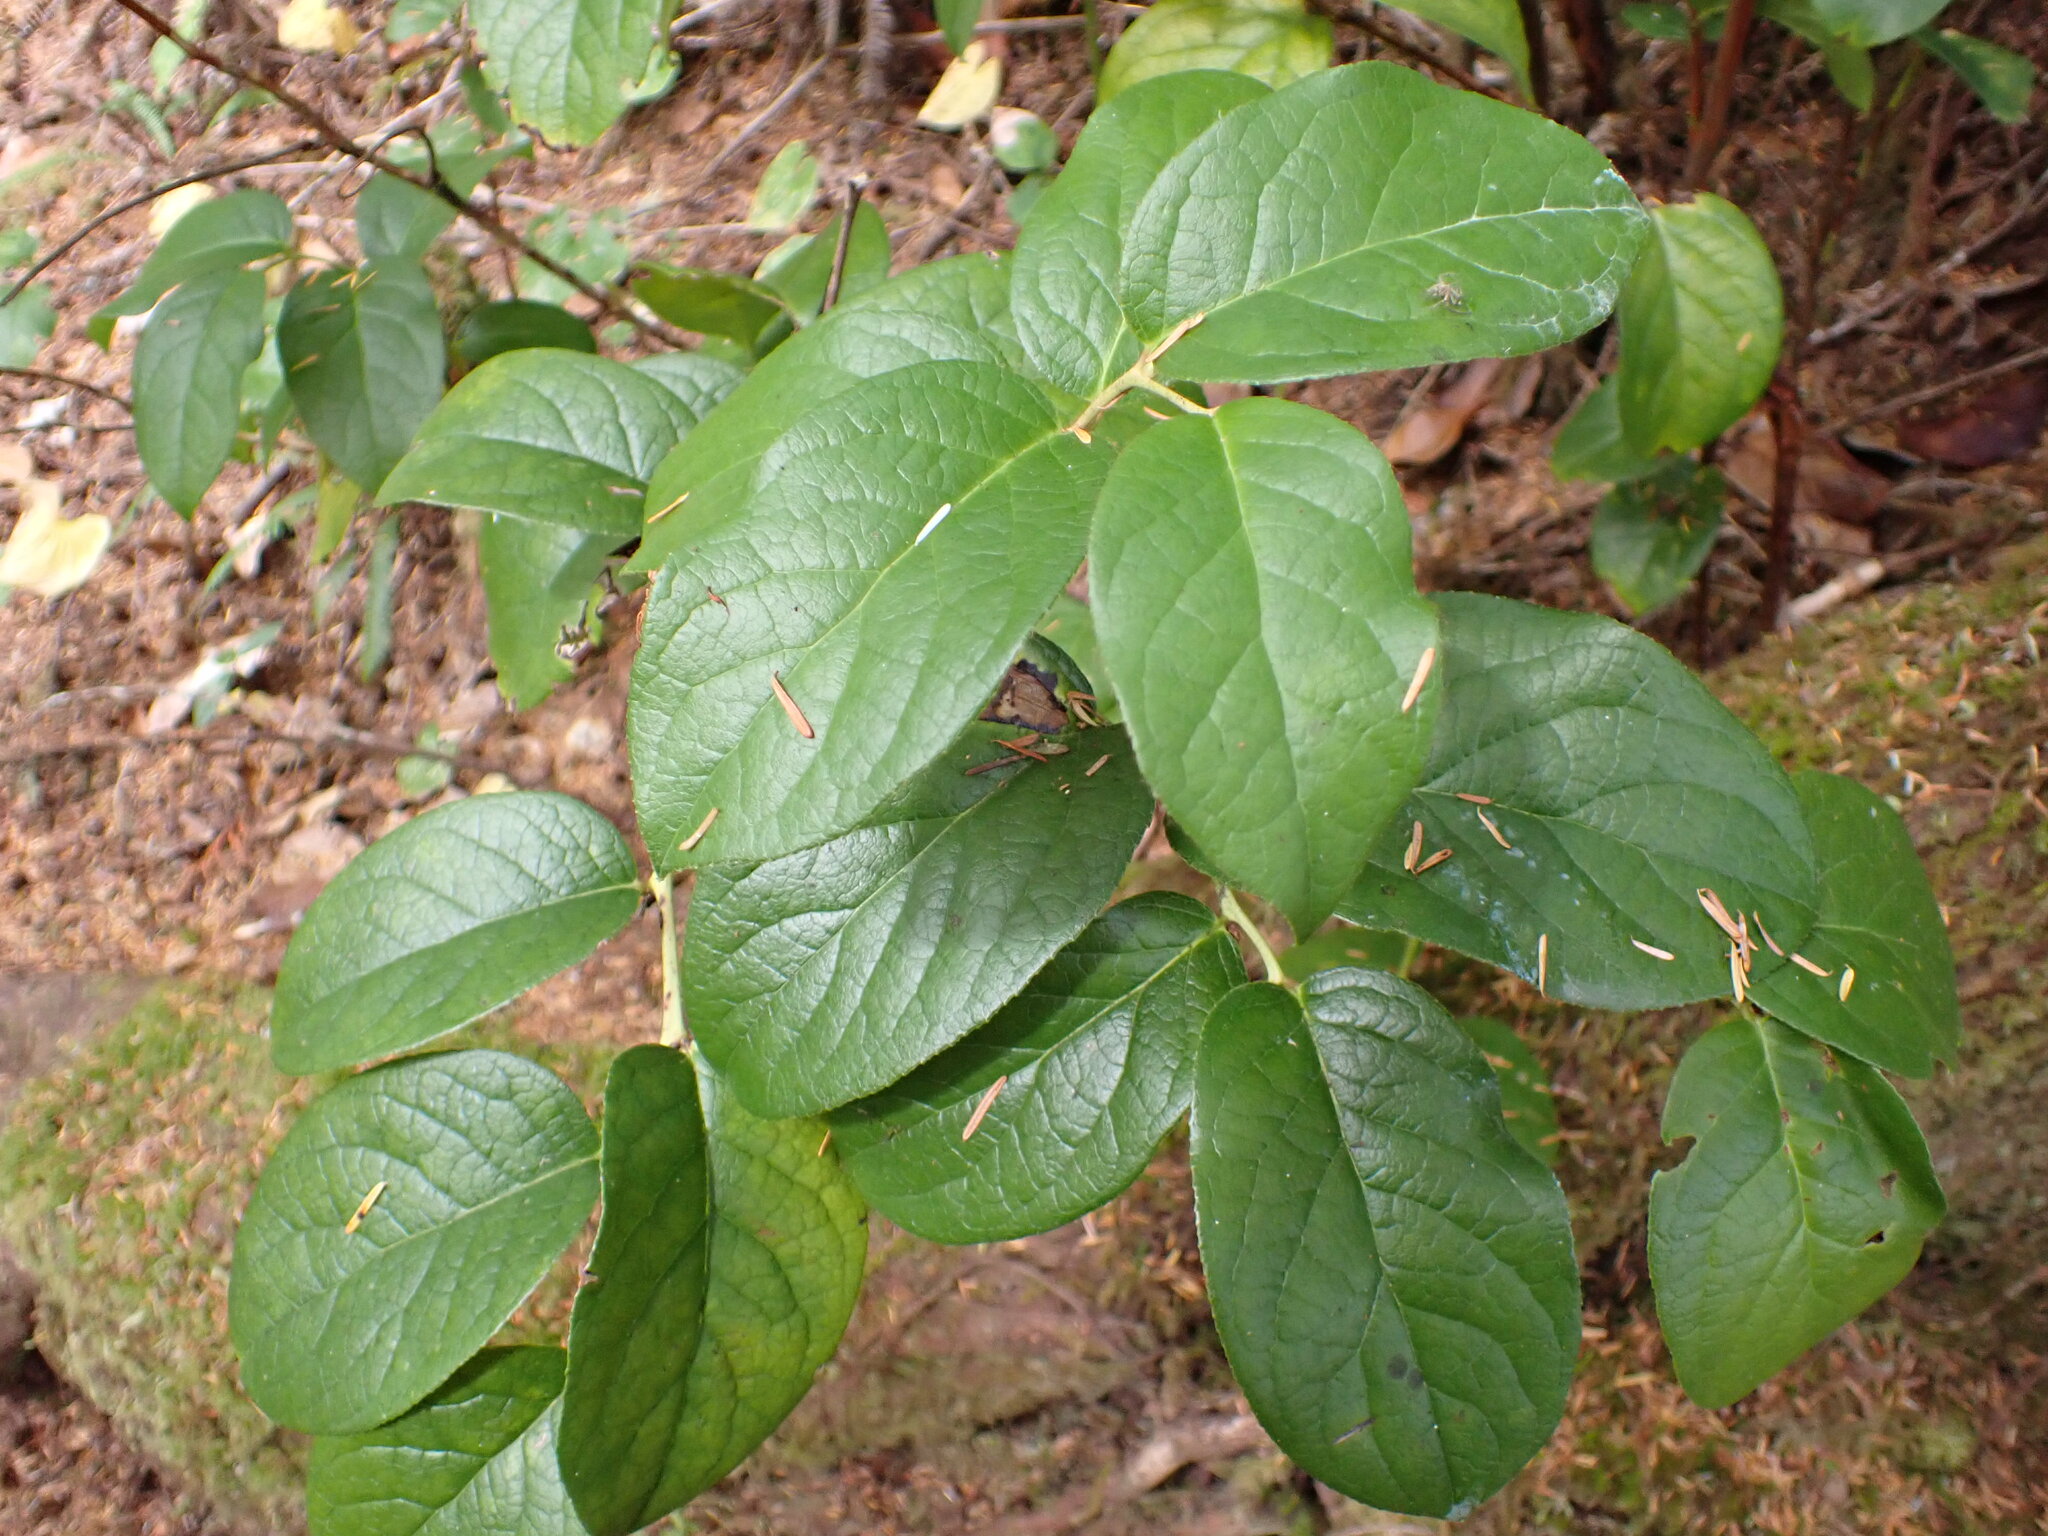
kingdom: Plantae
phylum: Tracheophyta
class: Magnoliopsida
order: Ericales
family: Ericaceae
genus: Gaultheria
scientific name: Gaultheria shallon
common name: Shallon
